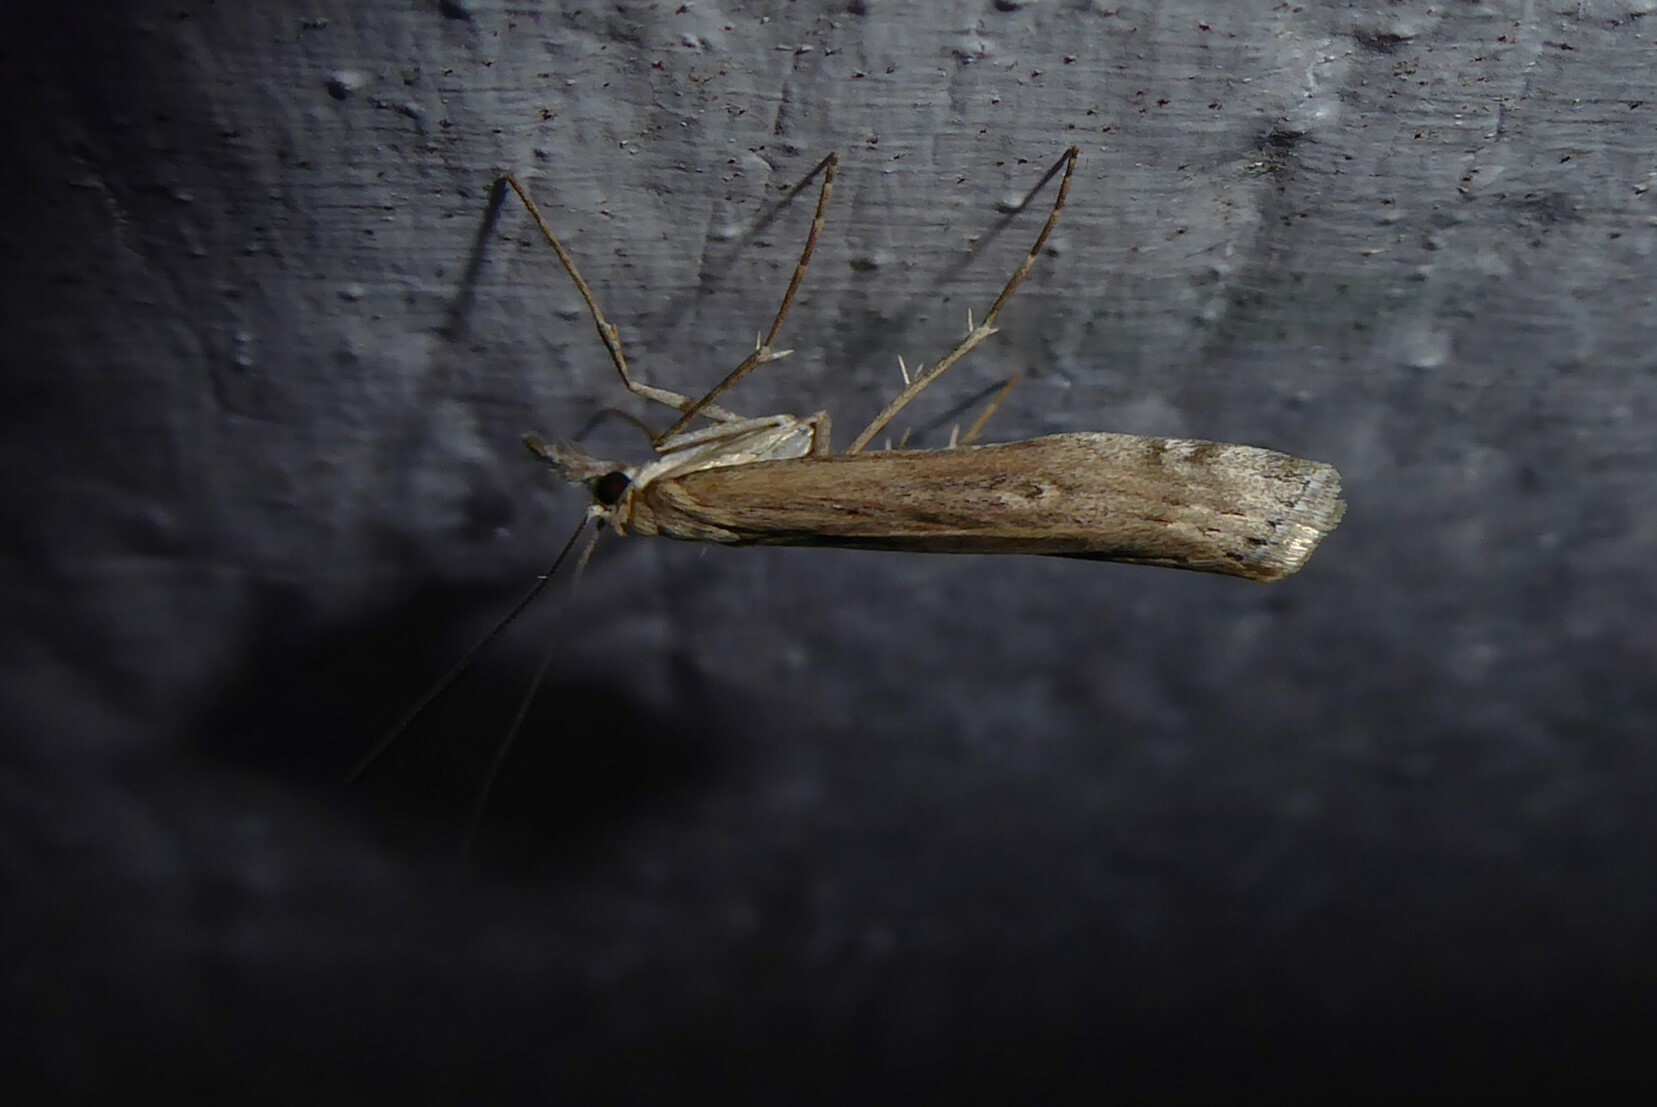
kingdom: Animalia
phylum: Arthropoda
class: Insecta
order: Lepidoptera
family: Crambidae
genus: Orocrambus
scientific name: Orocrambus cyclopicus
